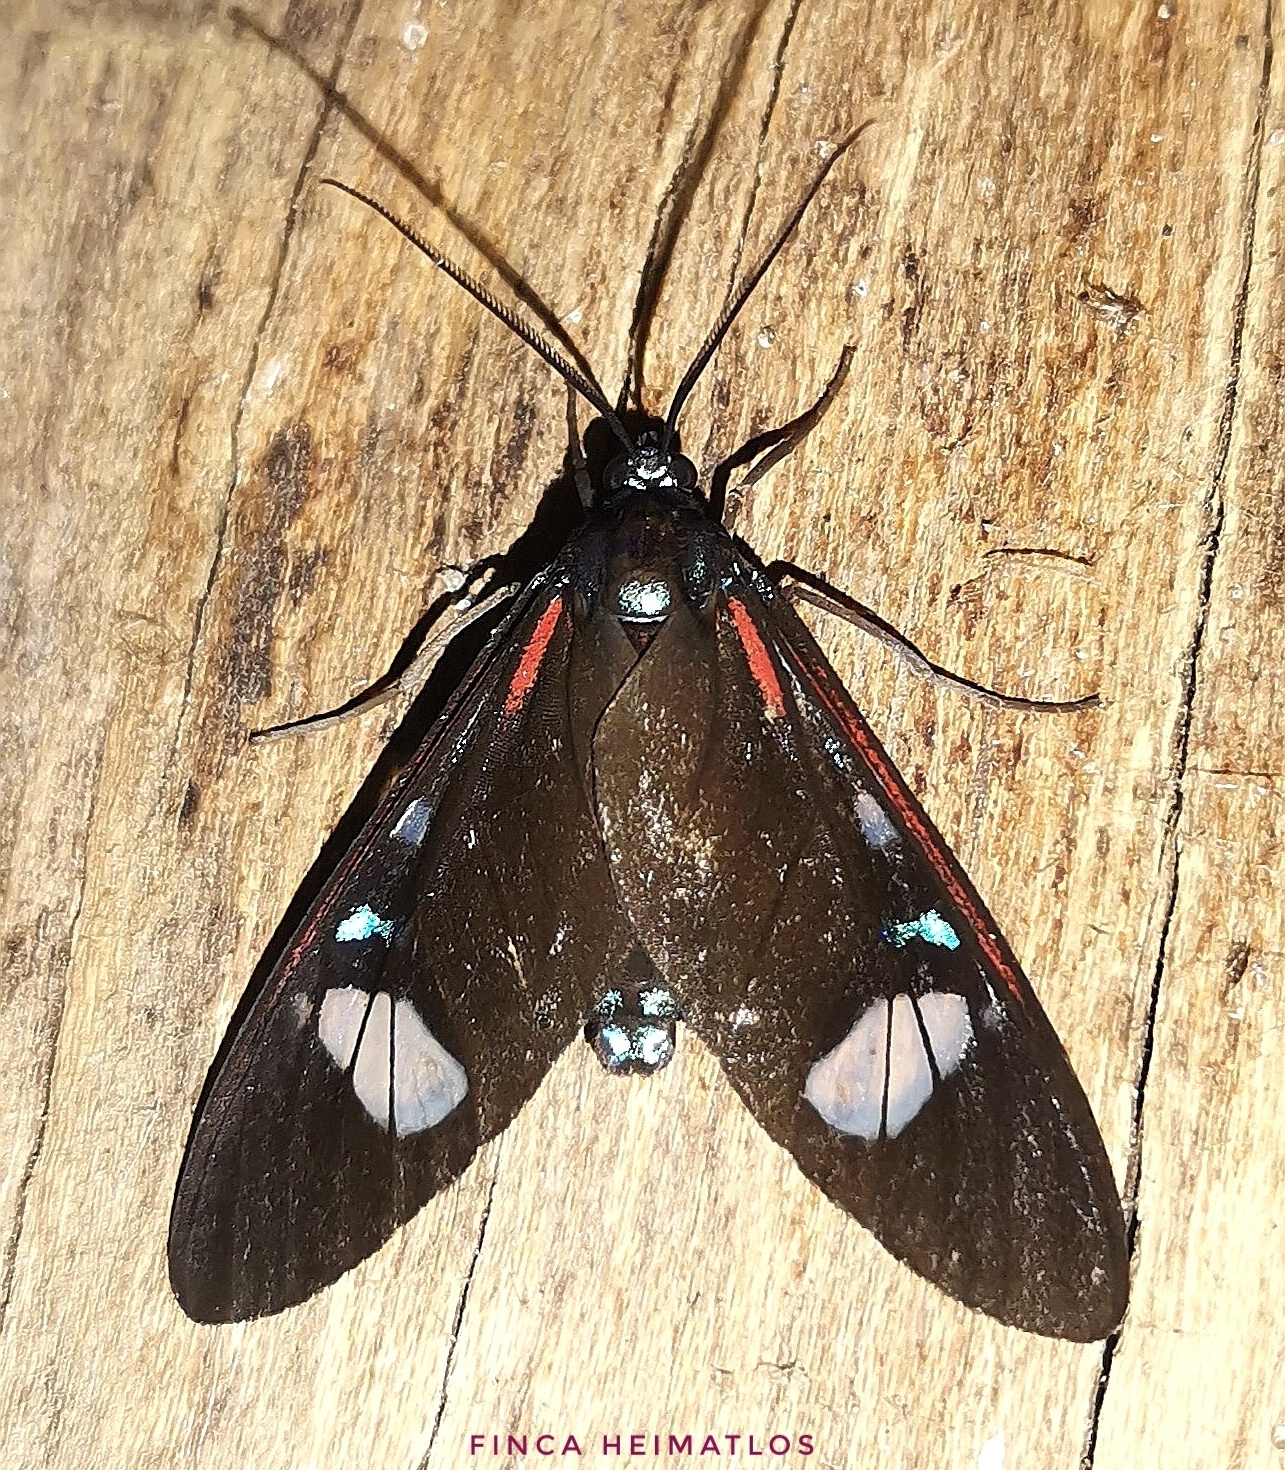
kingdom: Animalia
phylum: Arthropoda
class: Insecta
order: Lepidoptera
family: Erebidae
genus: Euclera
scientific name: Euclera meones
